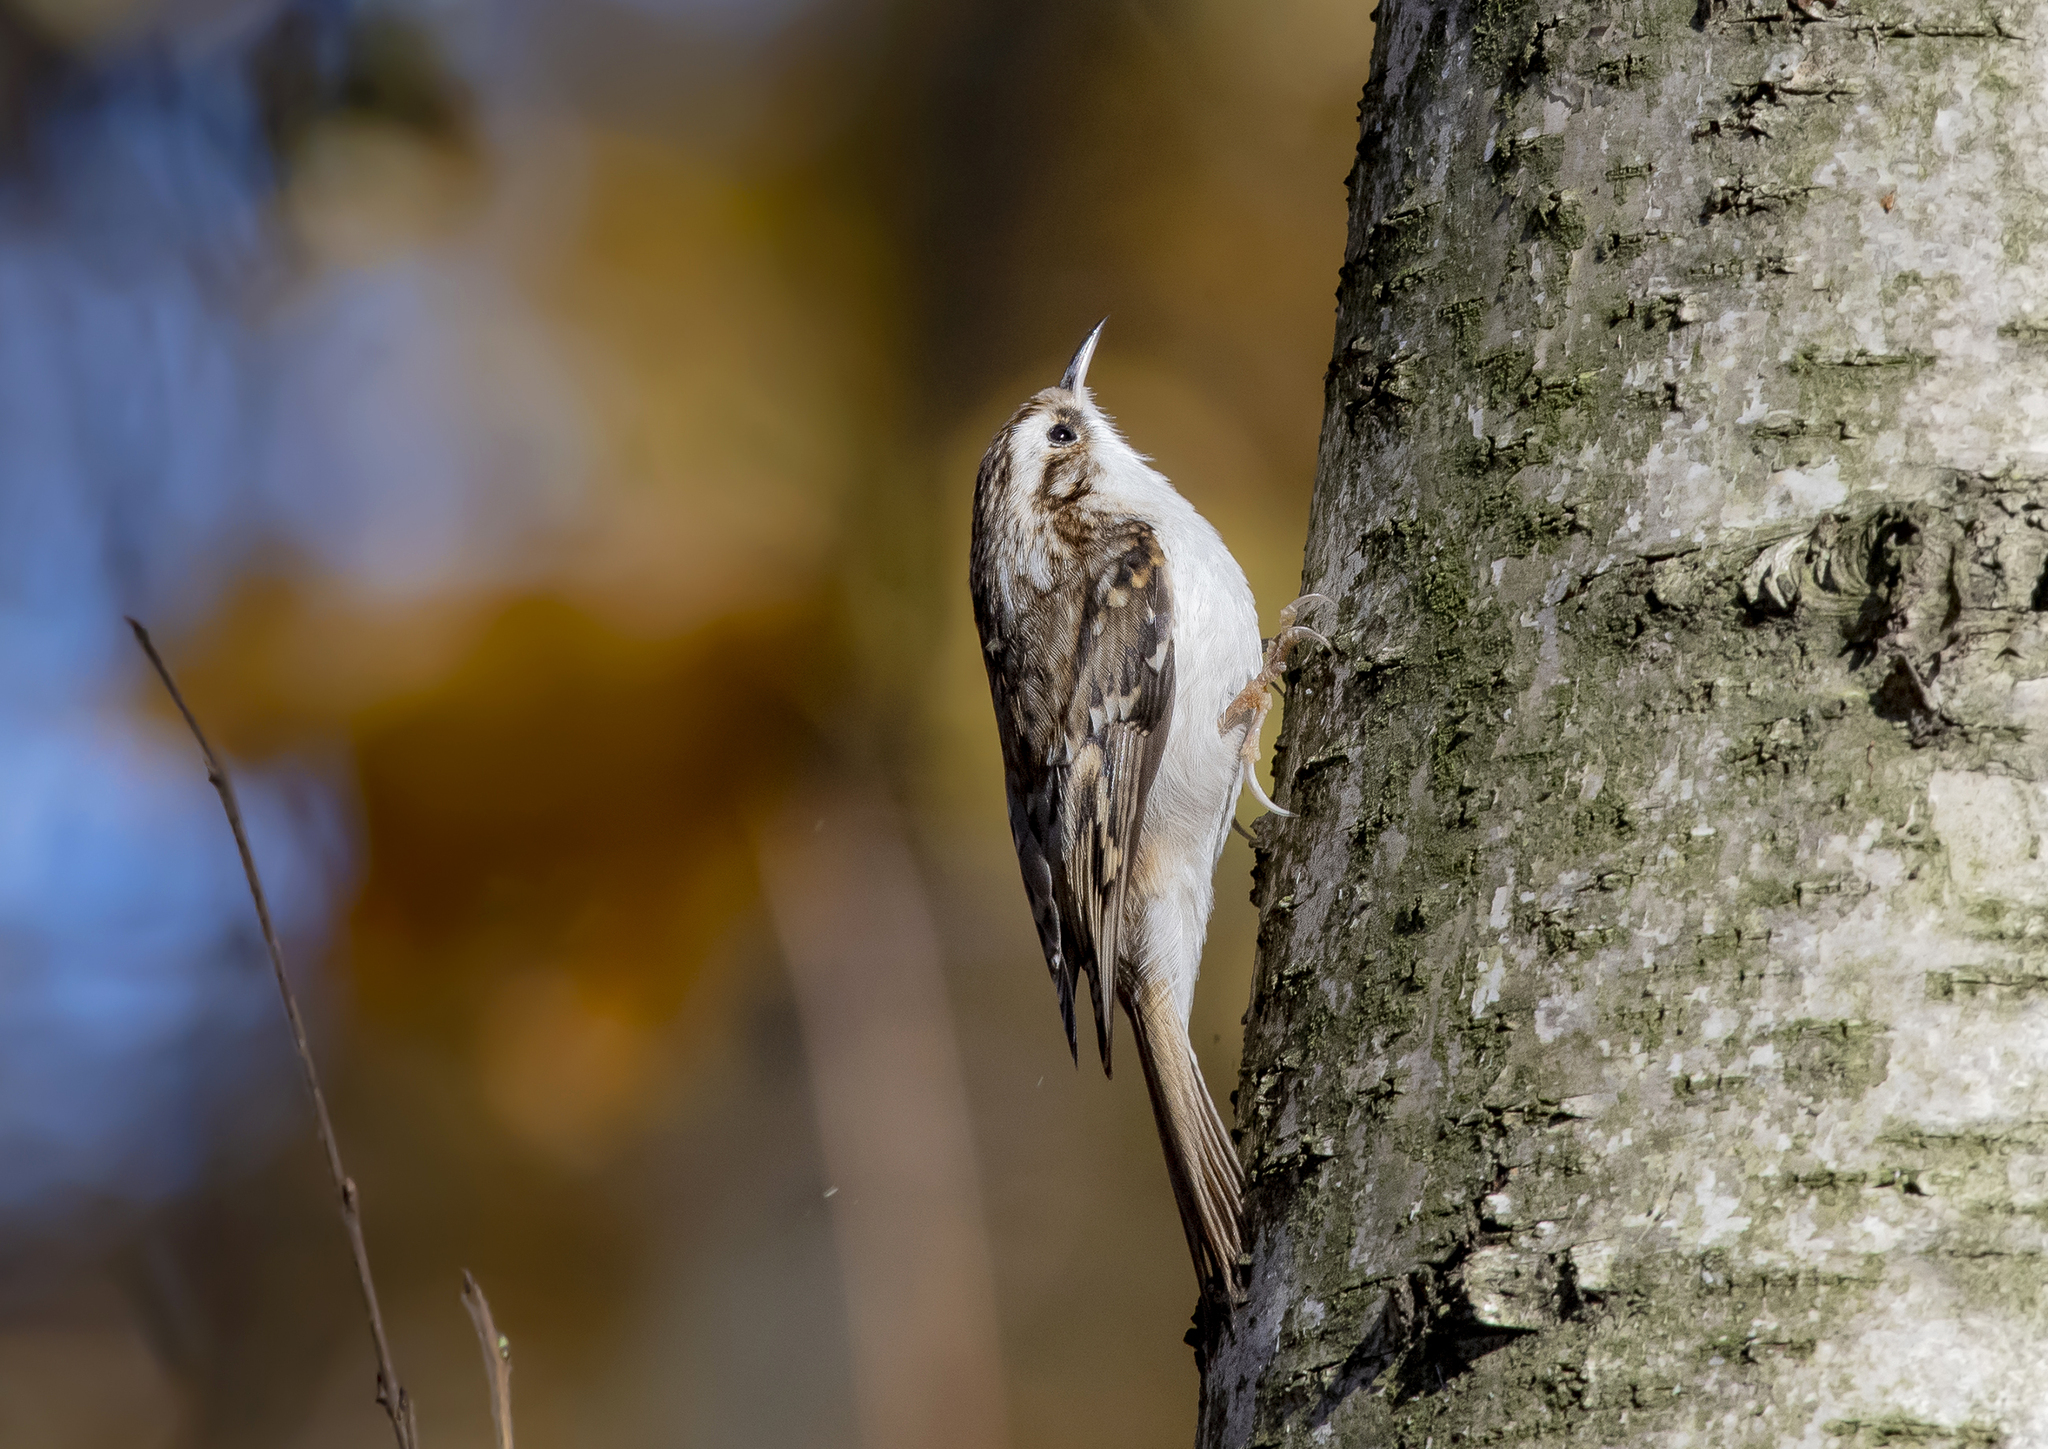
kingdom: Animalia
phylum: Chordata
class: Aves
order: Passeriformes
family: Certhiidae
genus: Certhia
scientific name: Certhia familiaris
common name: Eurasian treecreeper
